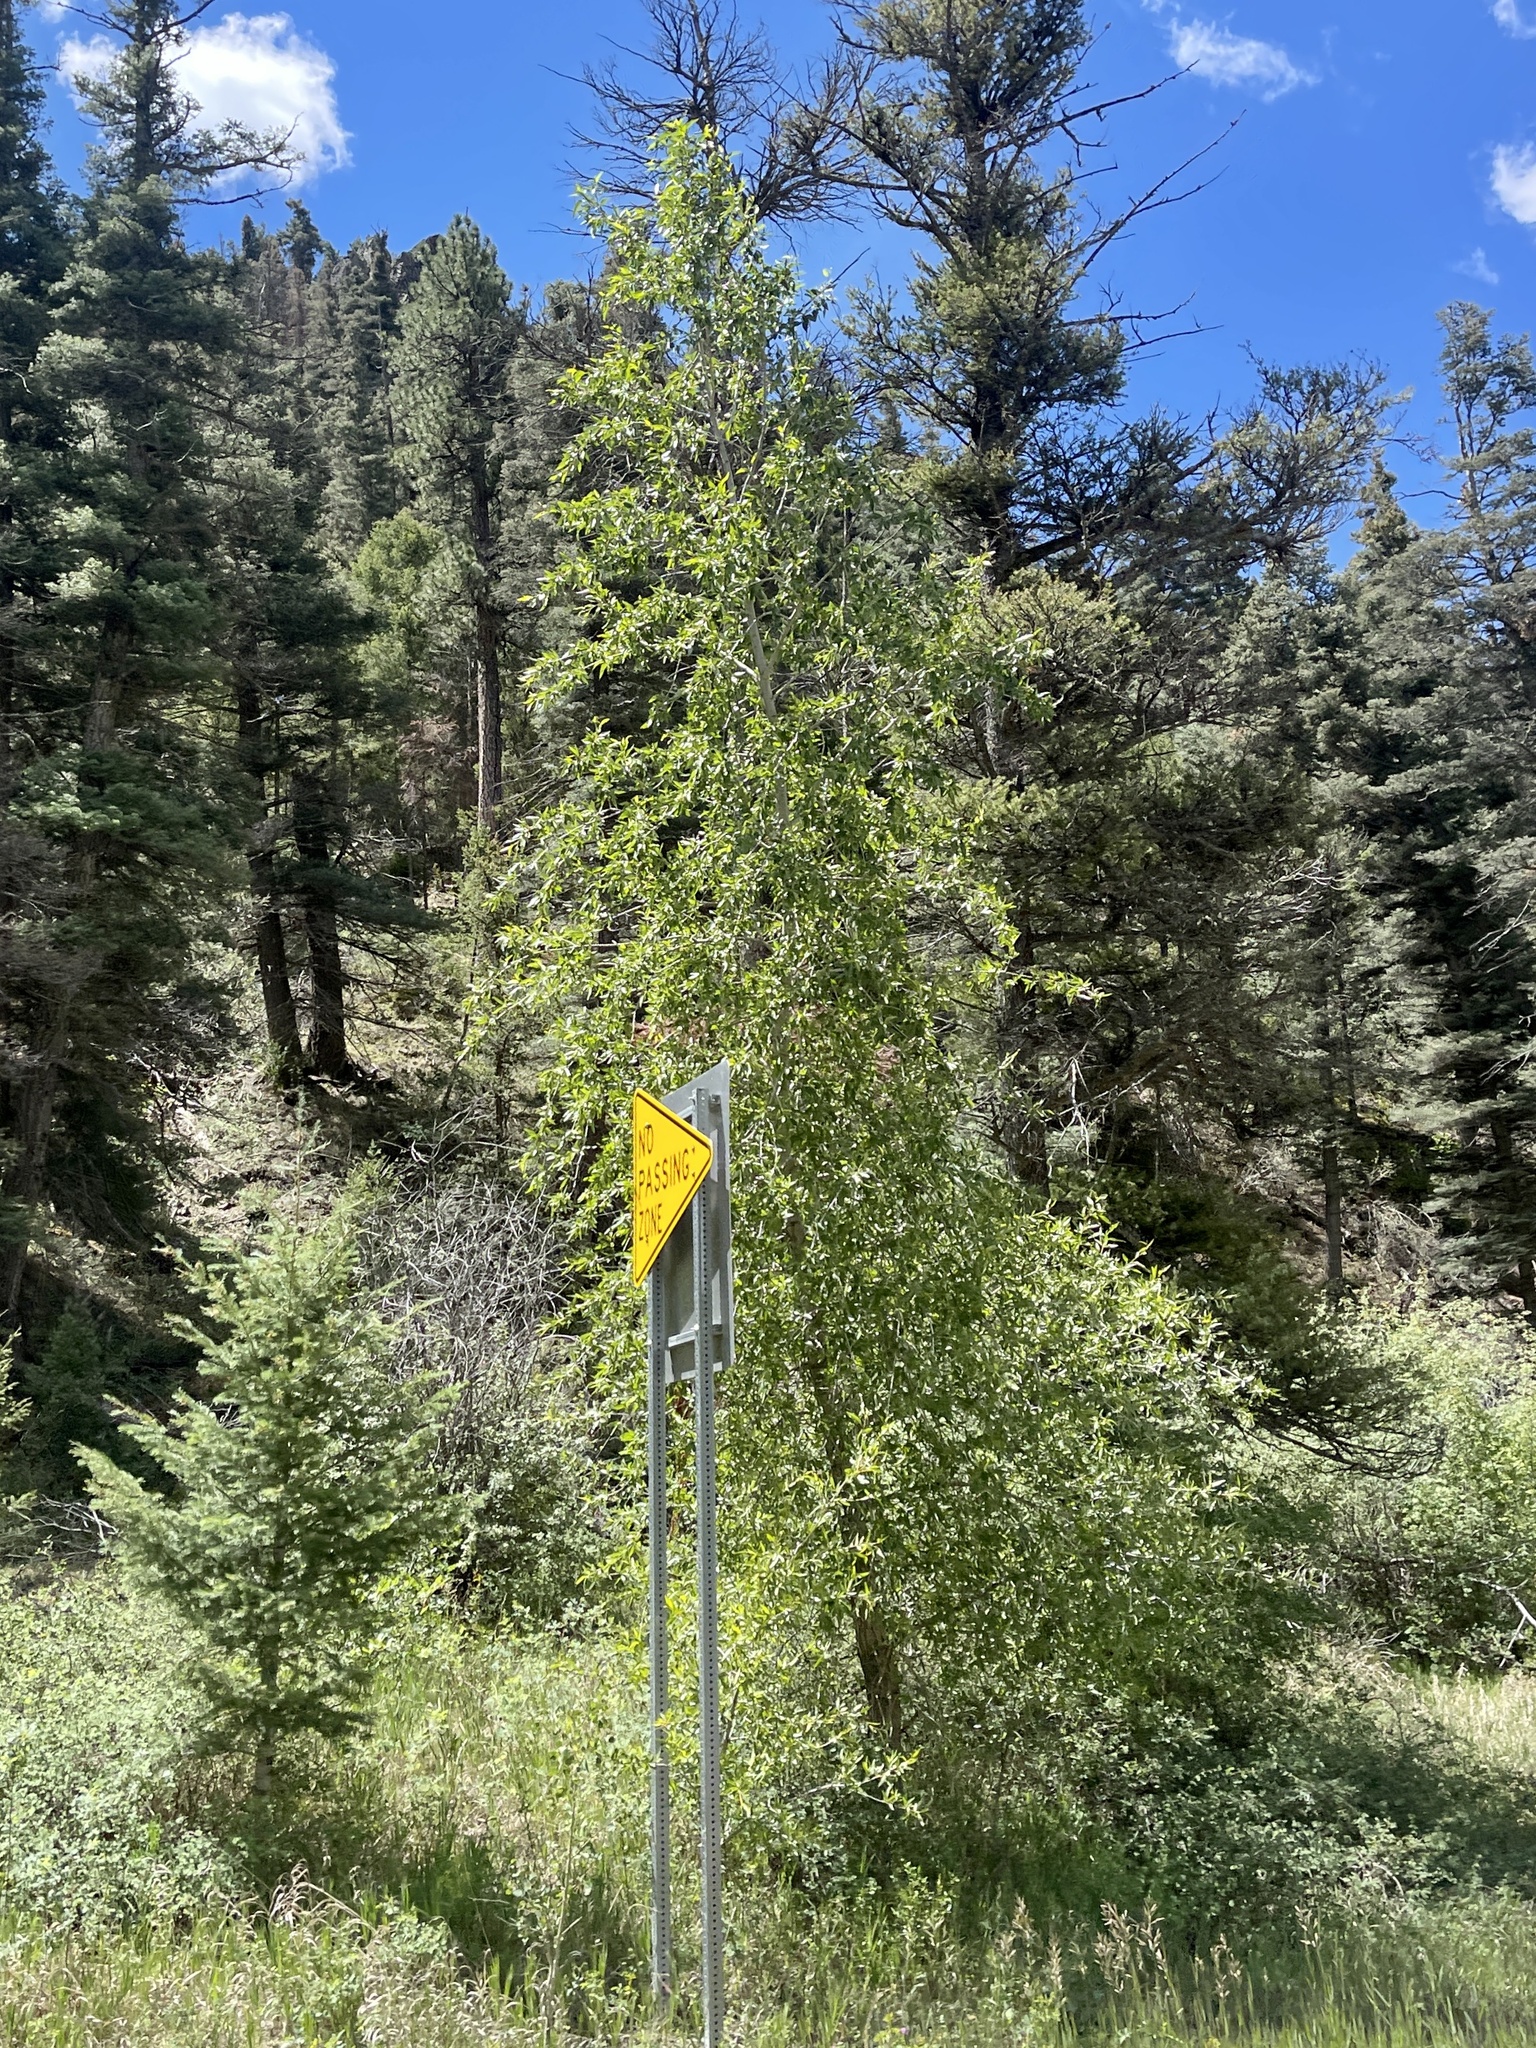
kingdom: Plantae
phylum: Tracheophyta
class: Magnoliopsida
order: Malpighiales
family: Salicaceae
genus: Populus
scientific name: Populus tremuloides
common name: Quaking aspen
